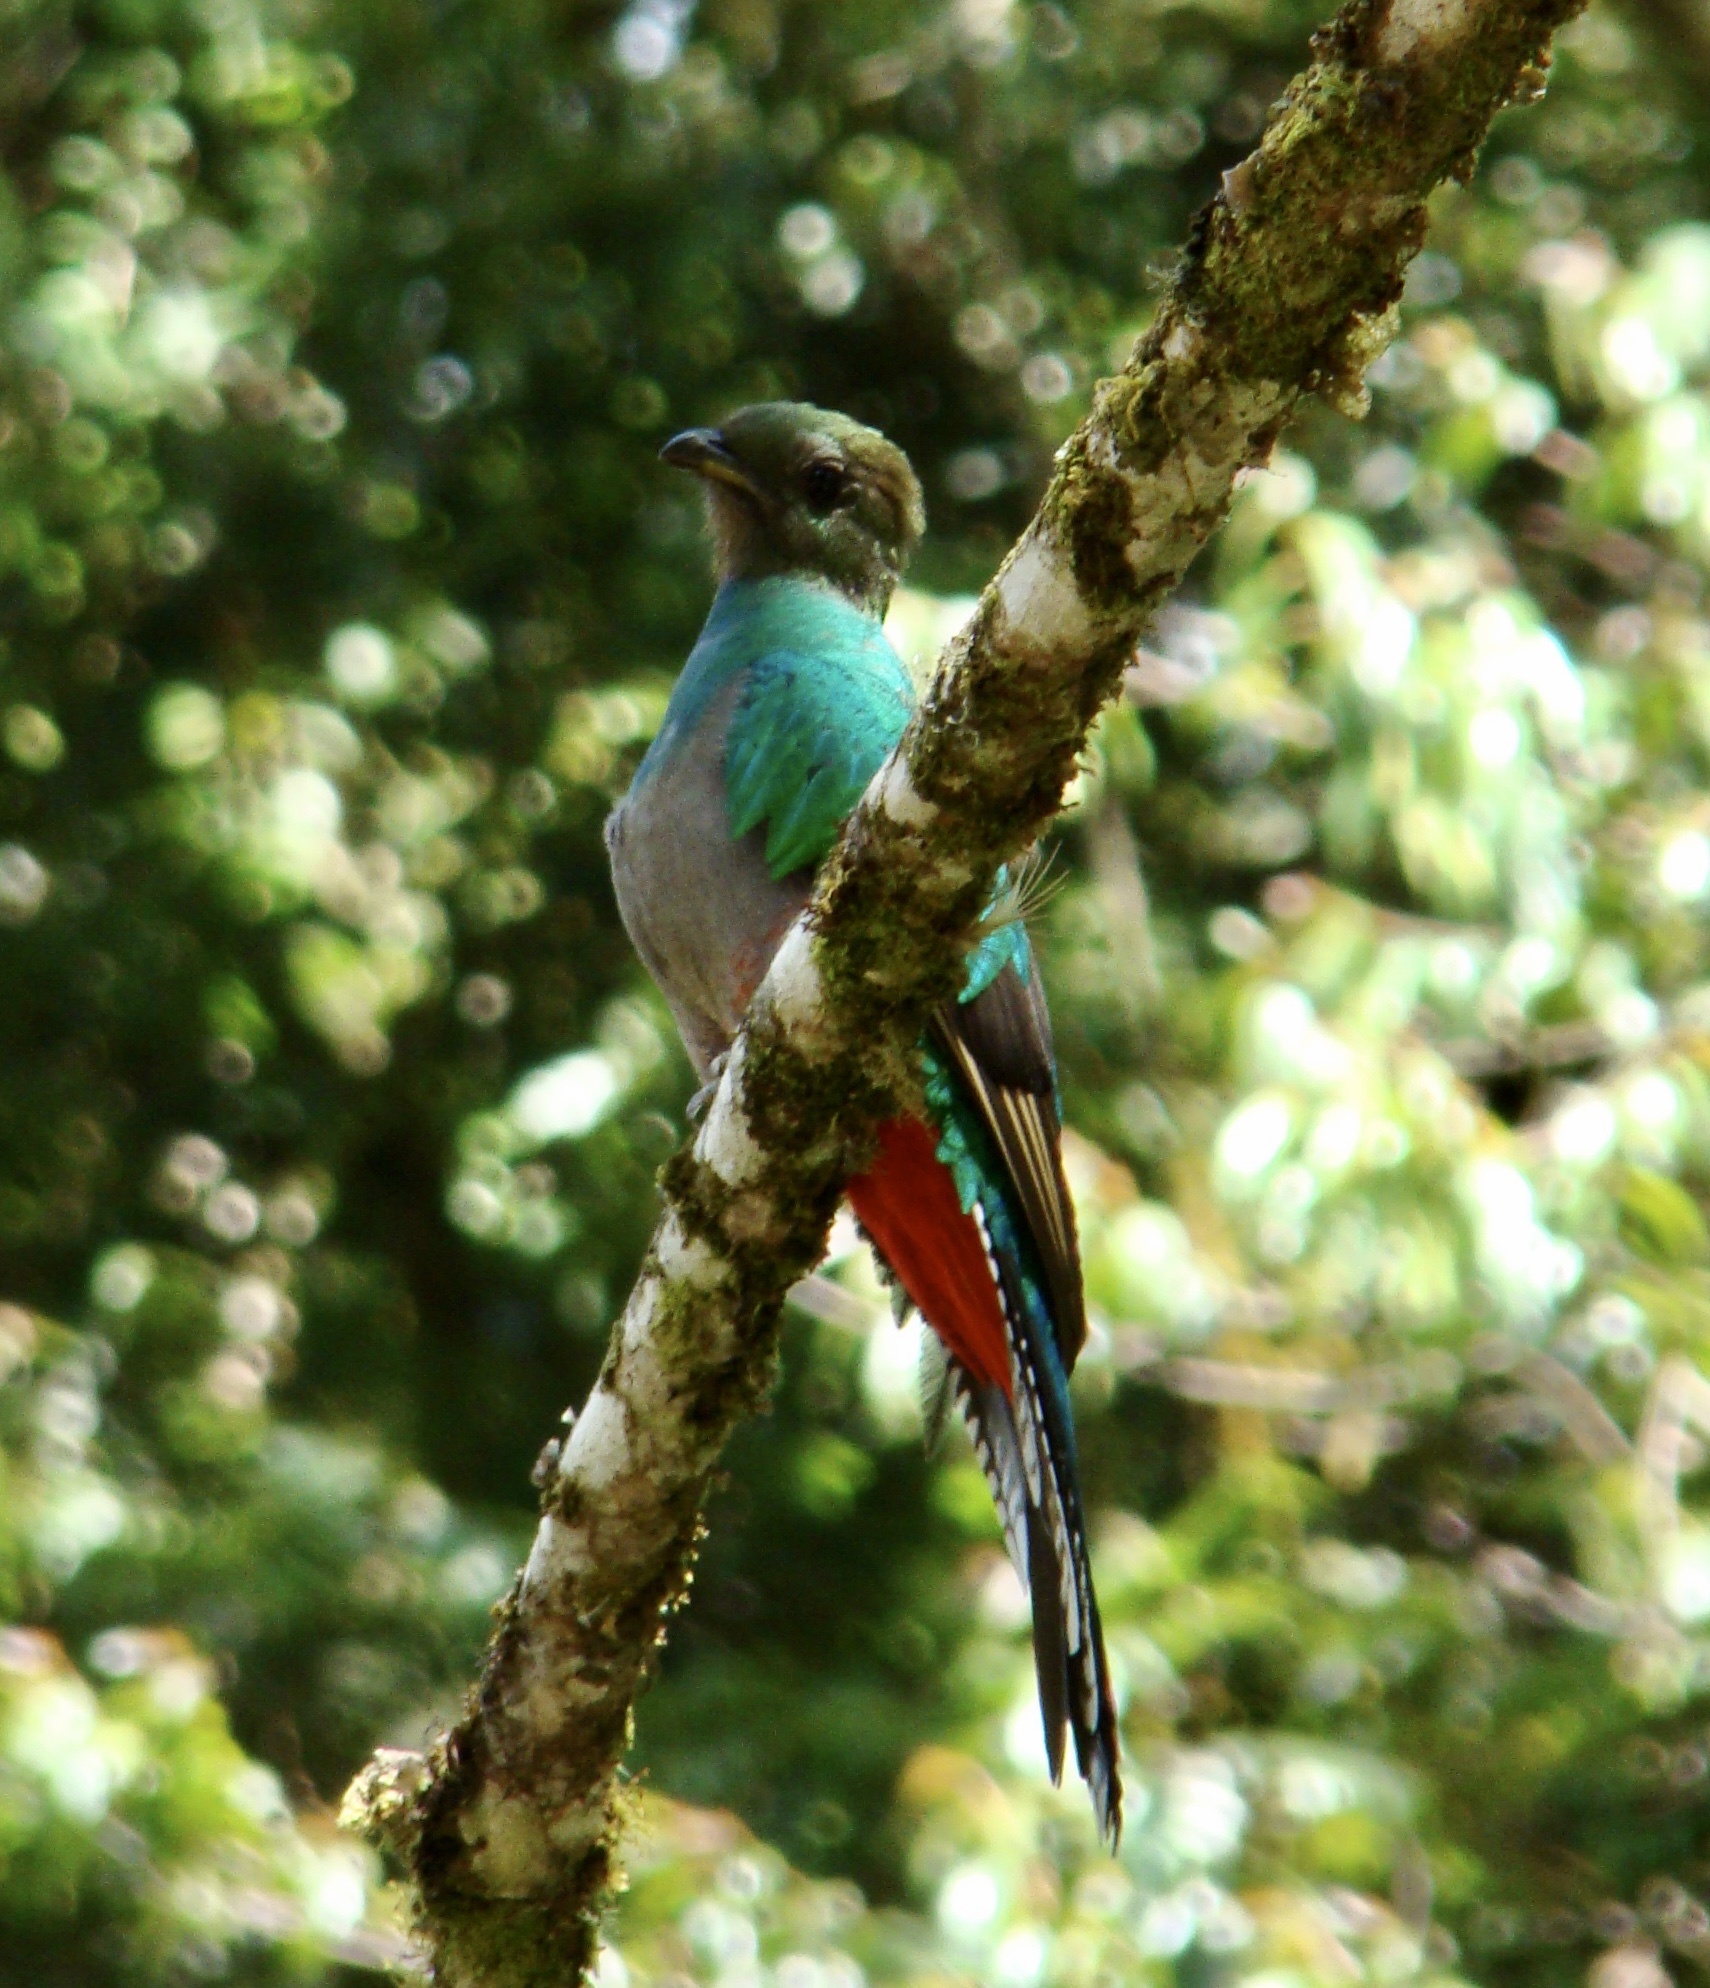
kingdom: Animalia
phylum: Chordata
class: Aves
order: Trogoniformes
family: Trogonidae
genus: Pharomachrus
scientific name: Pharomachrus mocinno
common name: Resplendent quetzal
